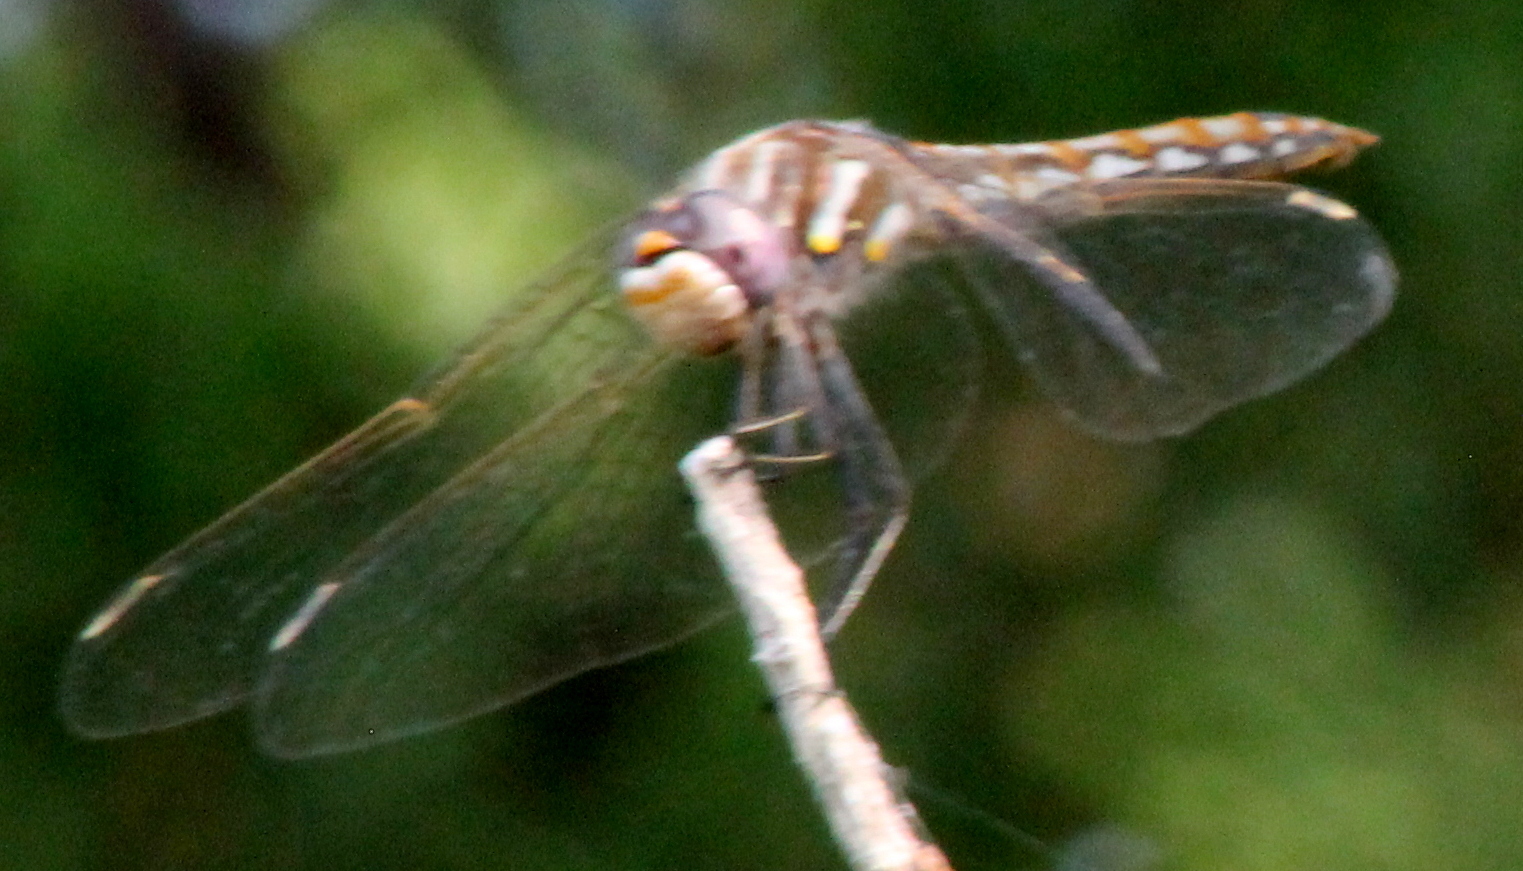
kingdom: Animalia
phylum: Arthropoda
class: Insecta
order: Odonata
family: Libellulidae
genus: Sympetrum
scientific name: Sympetrum corruptum
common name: Variegated meadowhawk
